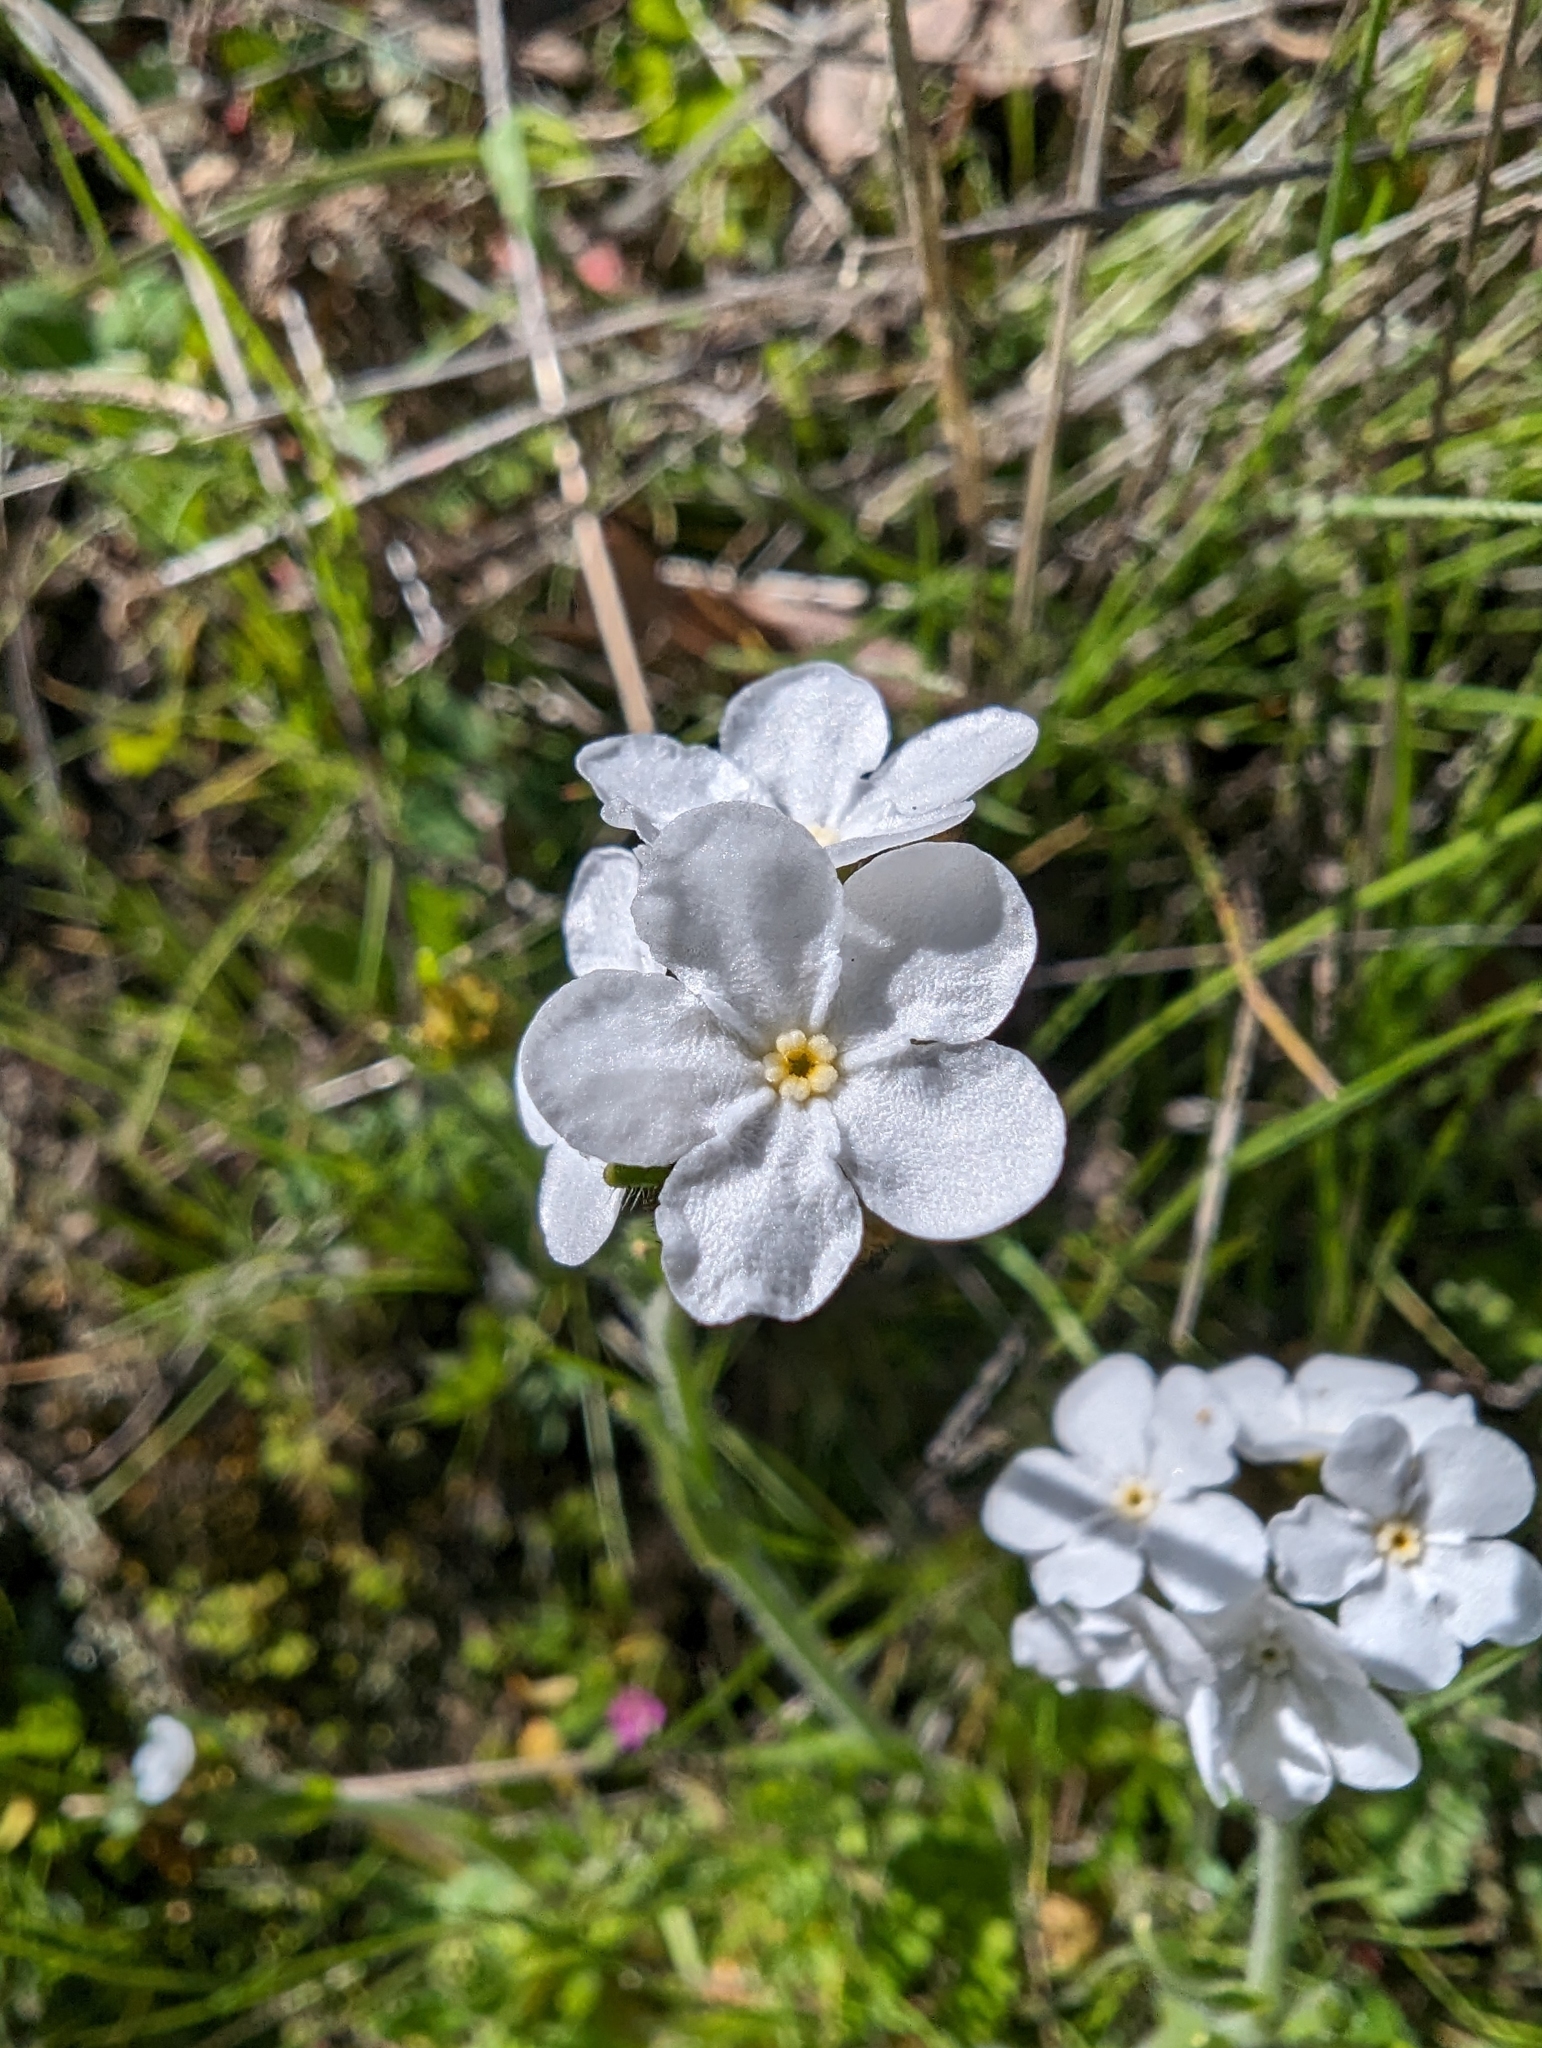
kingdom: Plantae
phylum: Tracheophyta
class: Magnoliopsida
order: Boraginales
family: Boraginaceae
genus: Plagiobothrys
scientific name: Plagiobothrys nothofulvus
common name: Popcorn-flower
